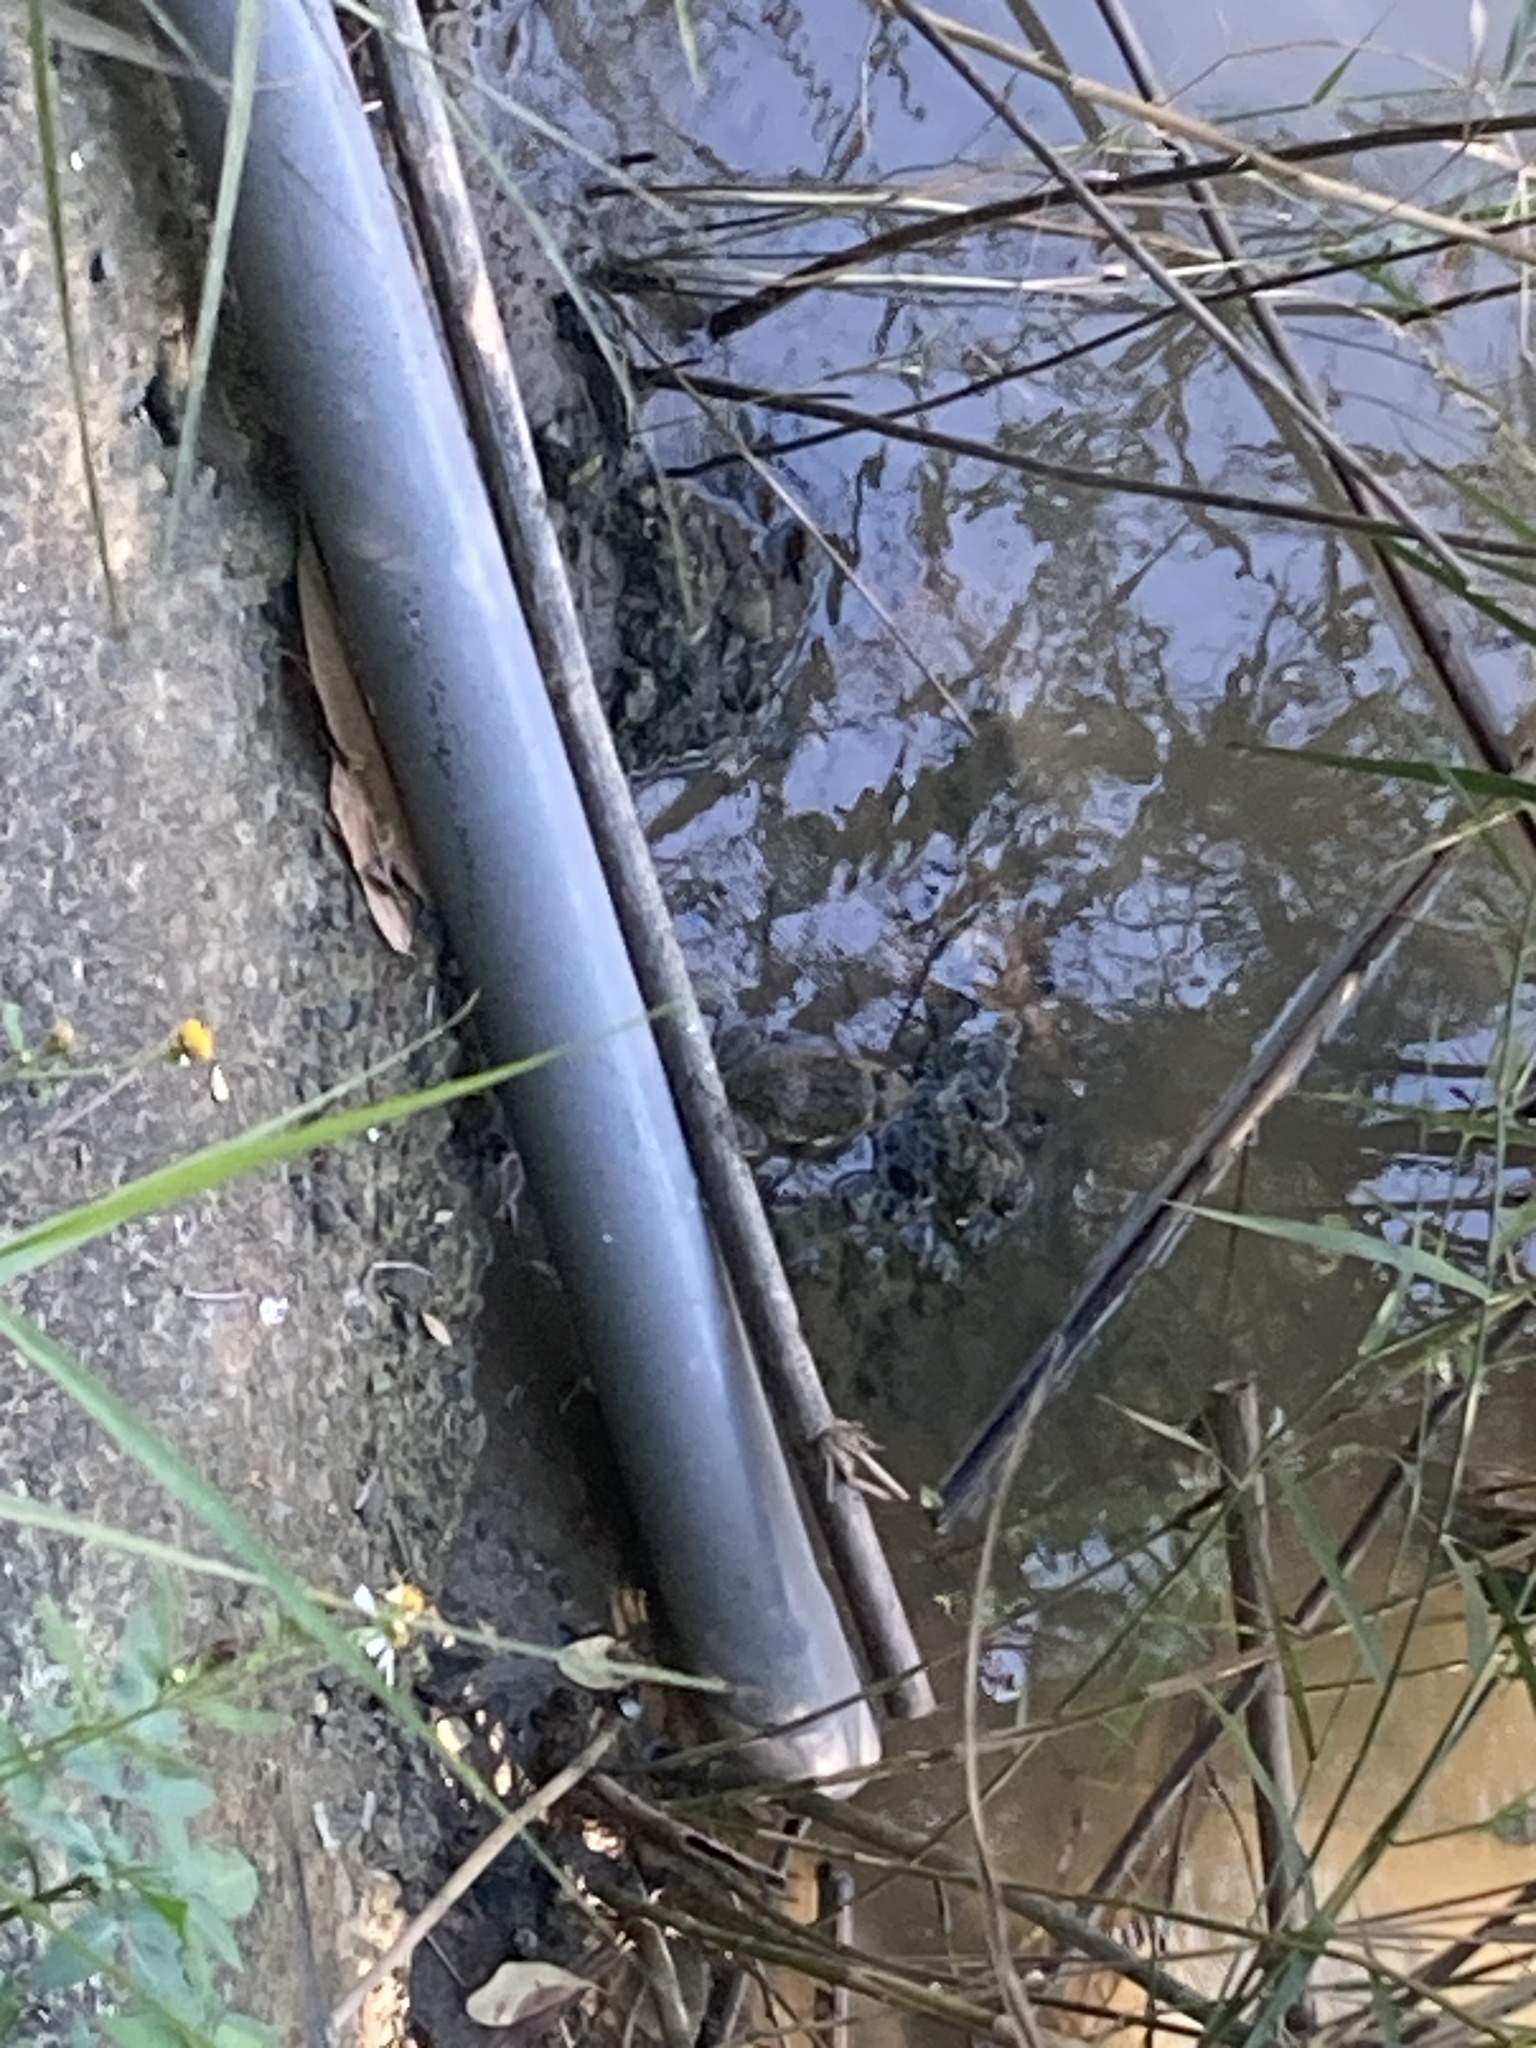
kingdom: Animalia
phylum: Chordata
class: Amphibia
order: Anura
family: Dicroglossidae
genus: Hoplobatrachus
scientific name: Hoplobatrachus rugulosus
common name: Chinese edible frog
